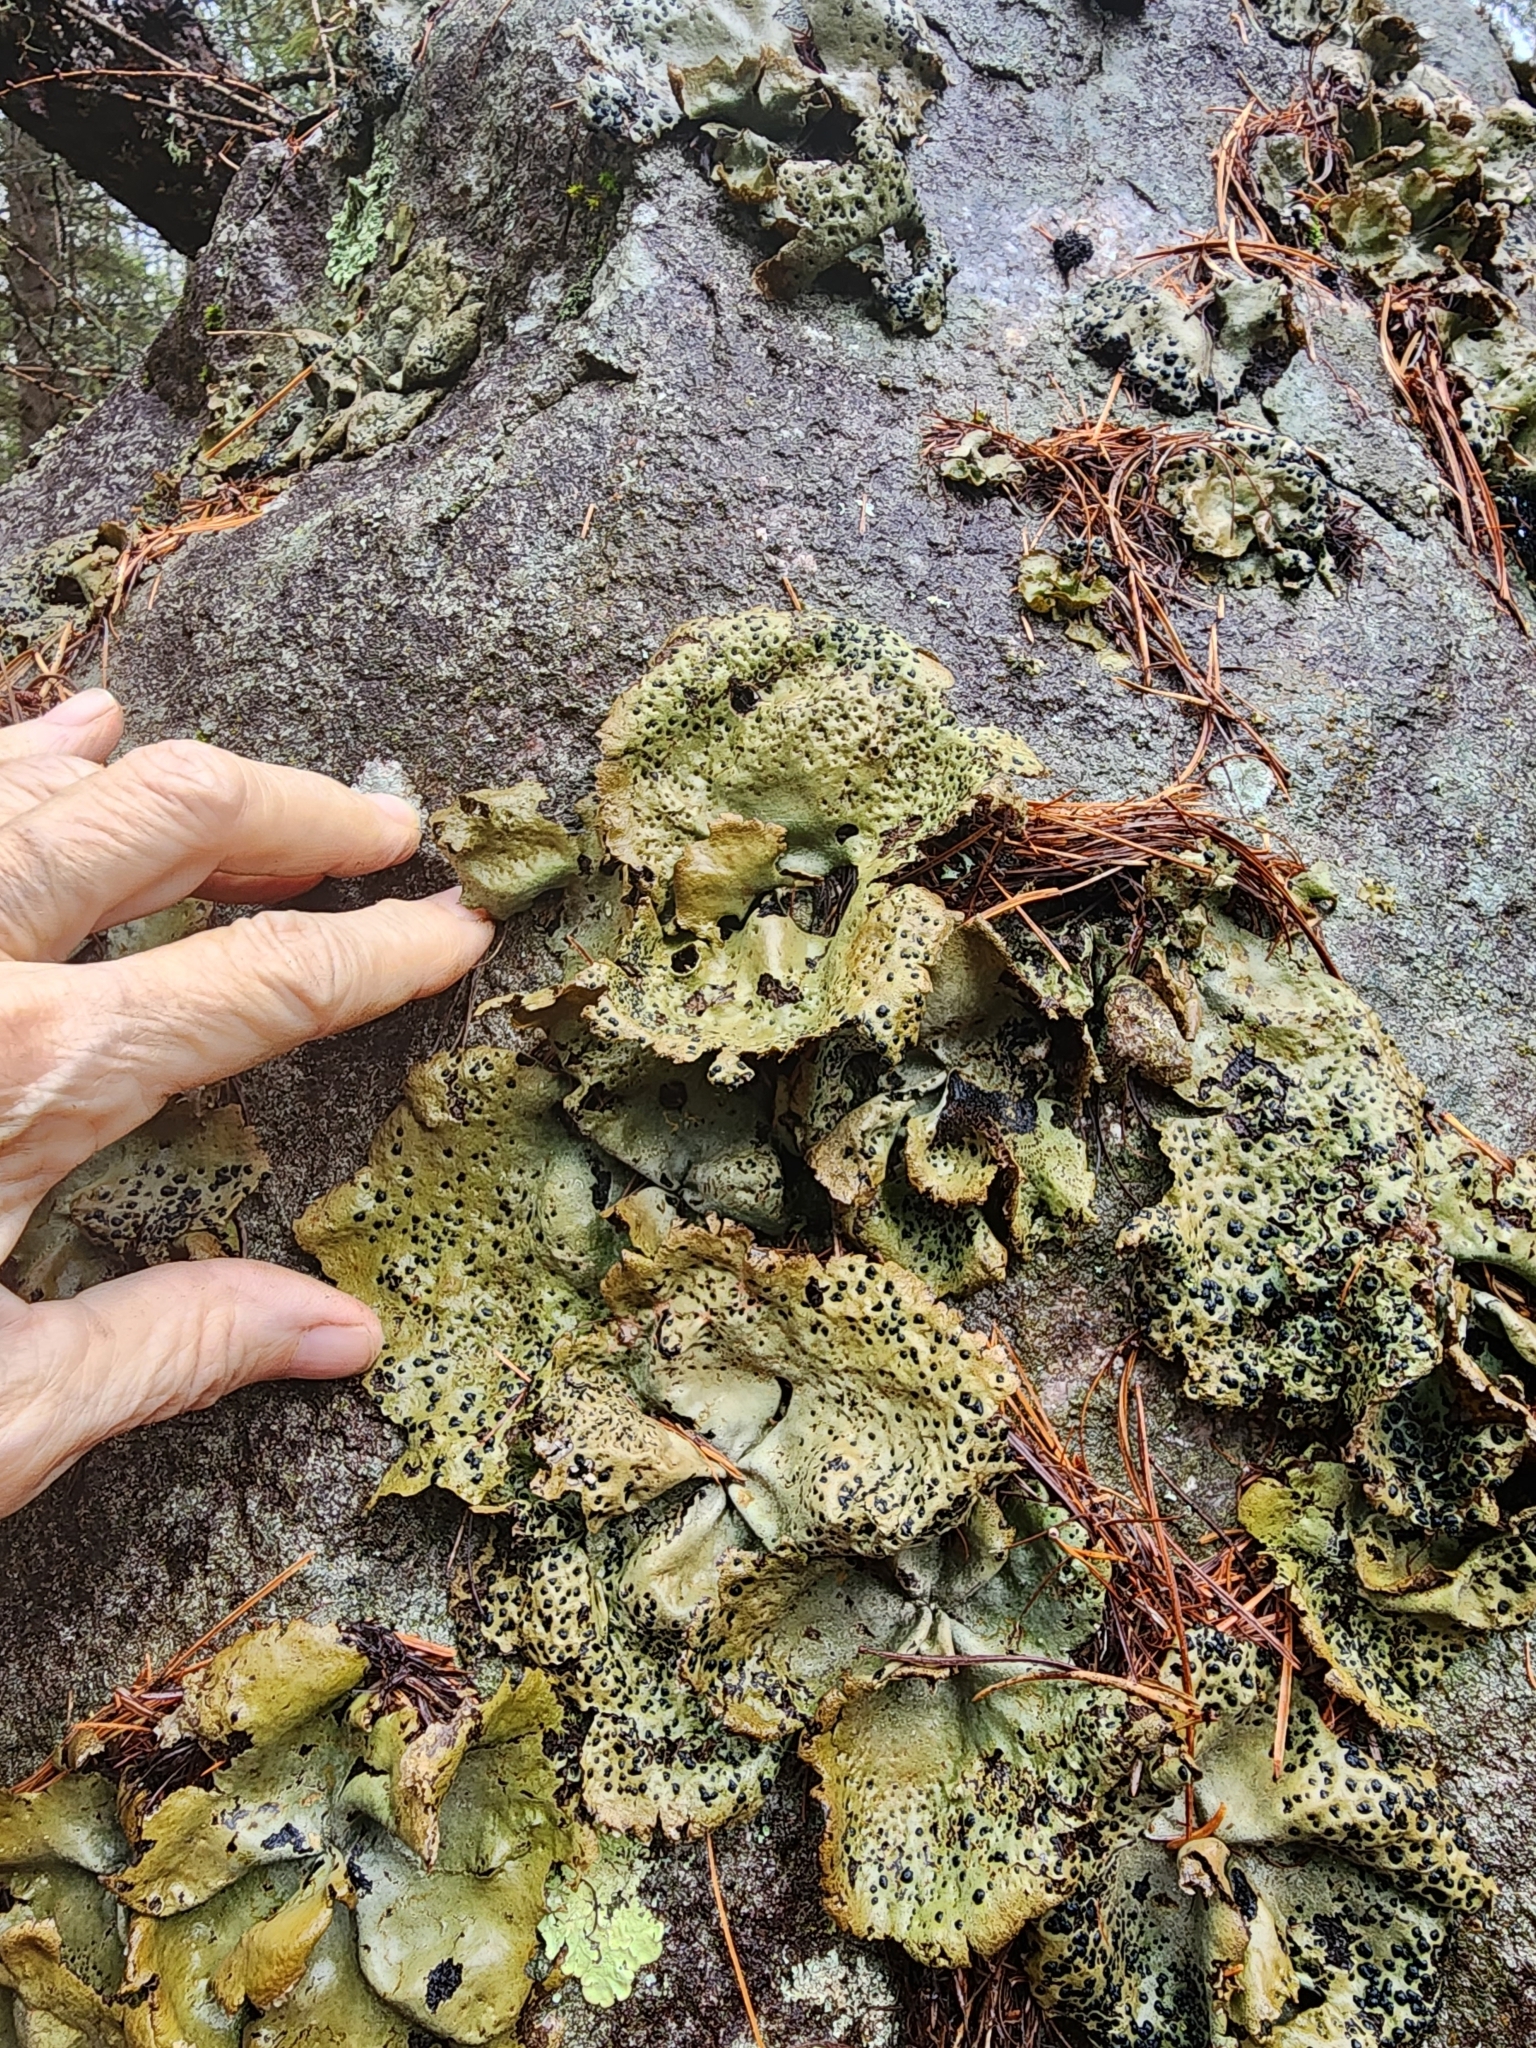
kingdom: Fungi
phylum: Ascomycota
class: Lecanoromycetes
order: Umbilicariales
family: Umbilicariaceae
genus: Umbilicaria
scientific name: Umbilicaria muhlenbergii
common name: Lesser rocktripe
